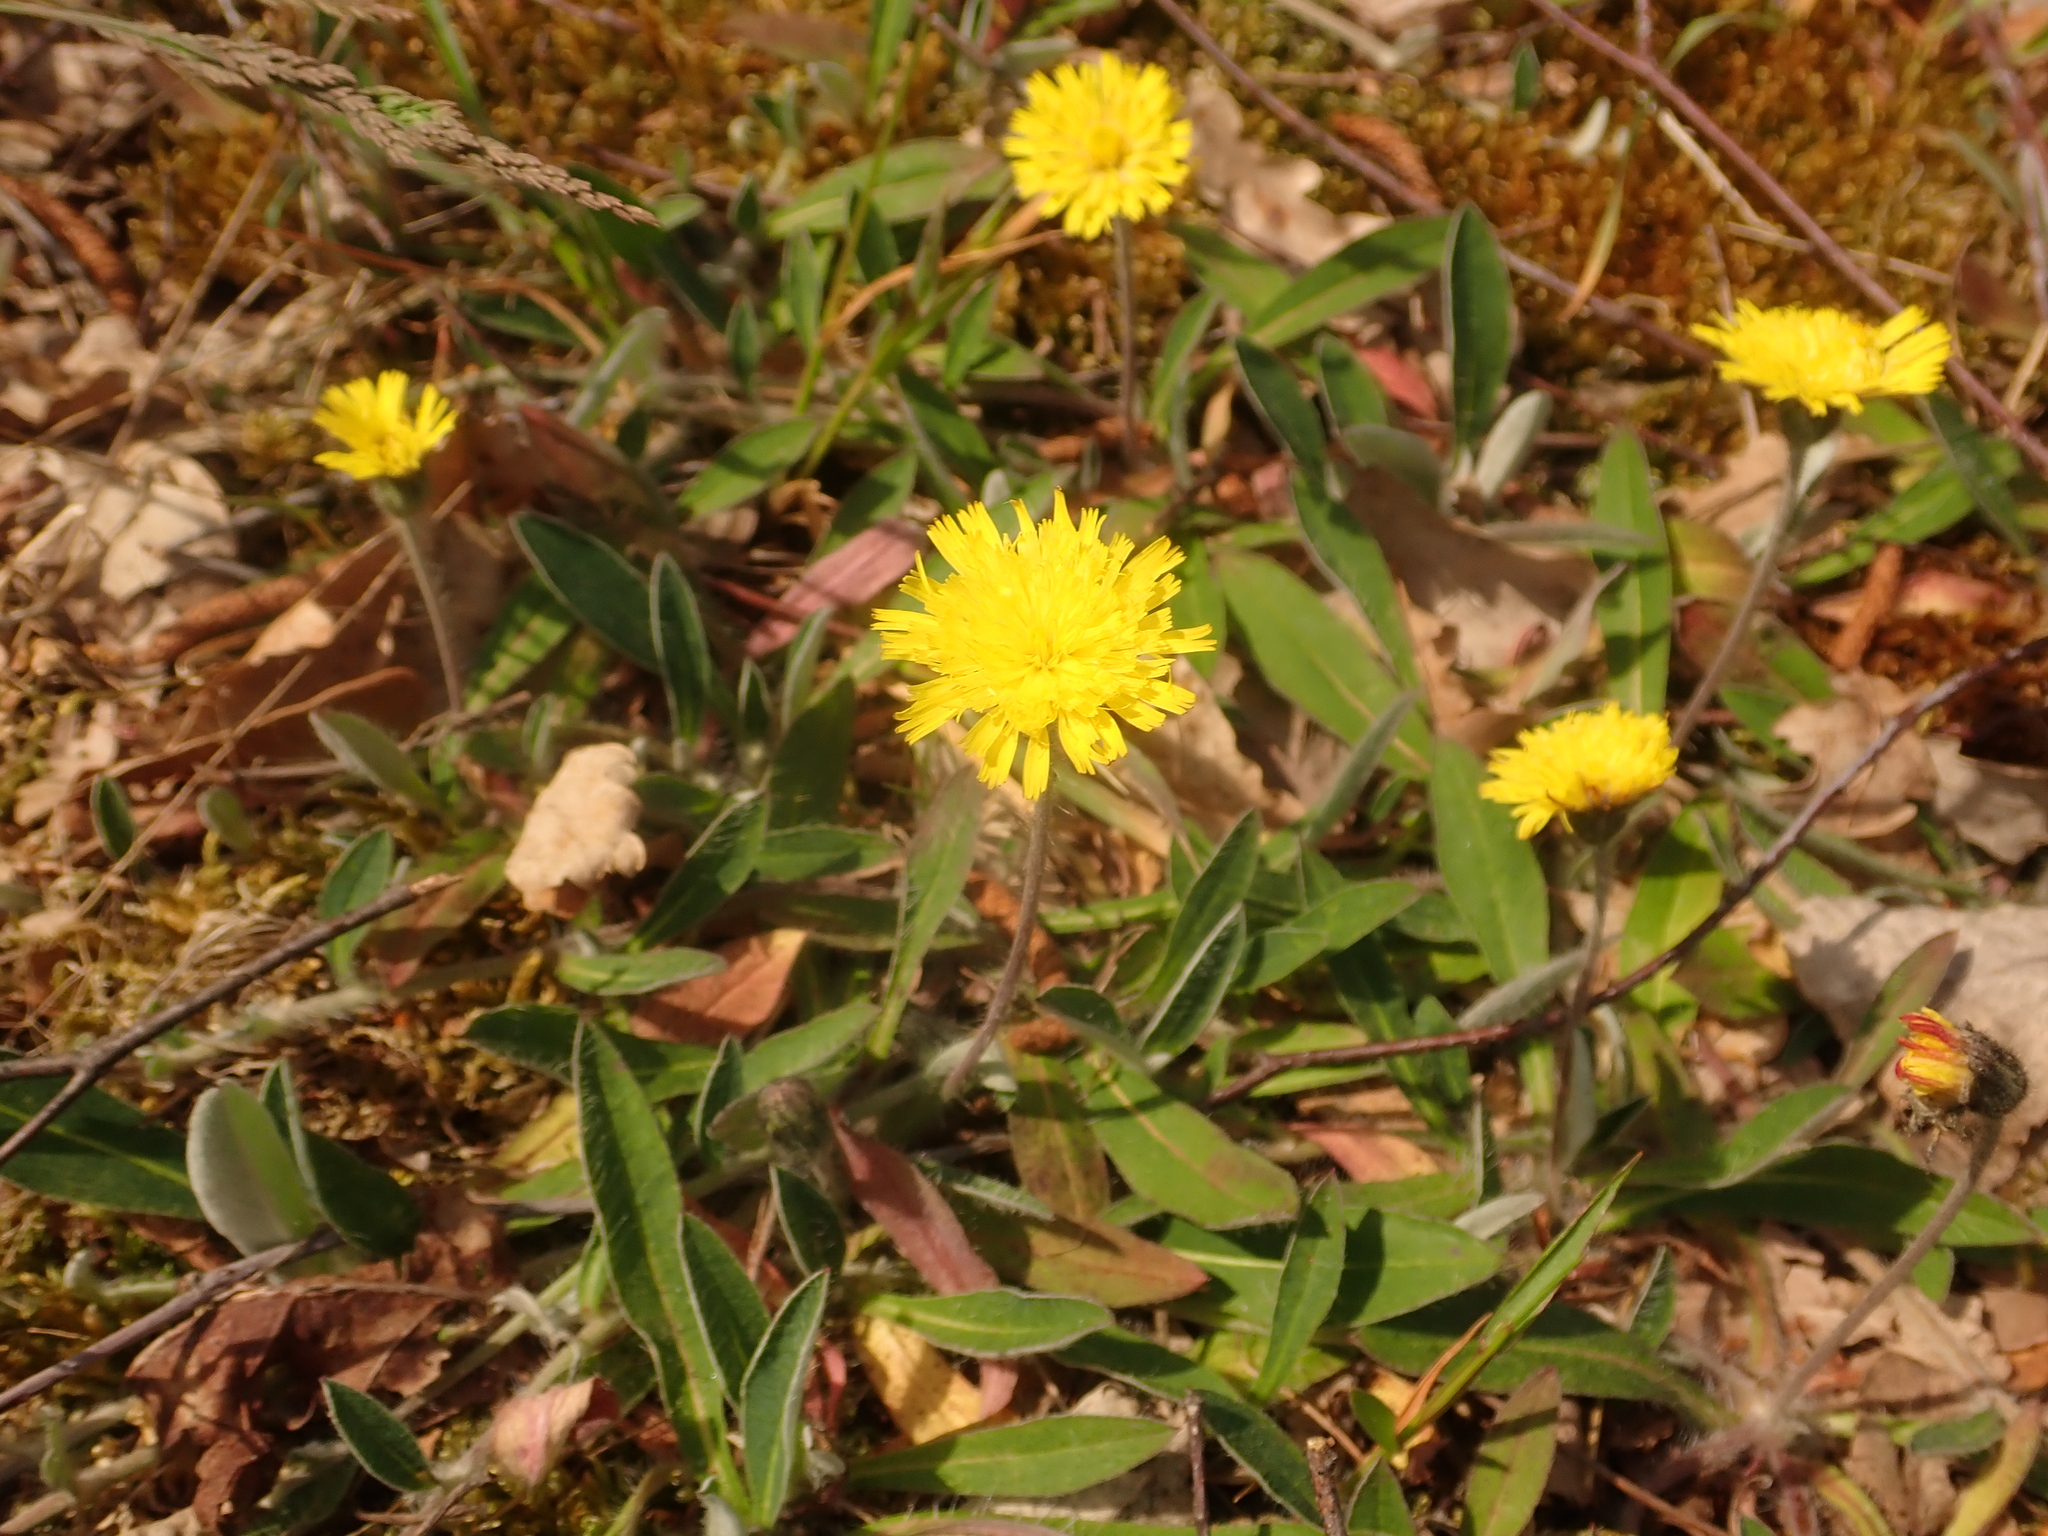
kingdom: Plantae
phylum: Tracheophyta
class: Magnoliopsida
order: Asterales
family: Asteraceae
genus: Pilosella
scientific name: Pilosella officinarum
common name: Mouse-ear hawkweed
